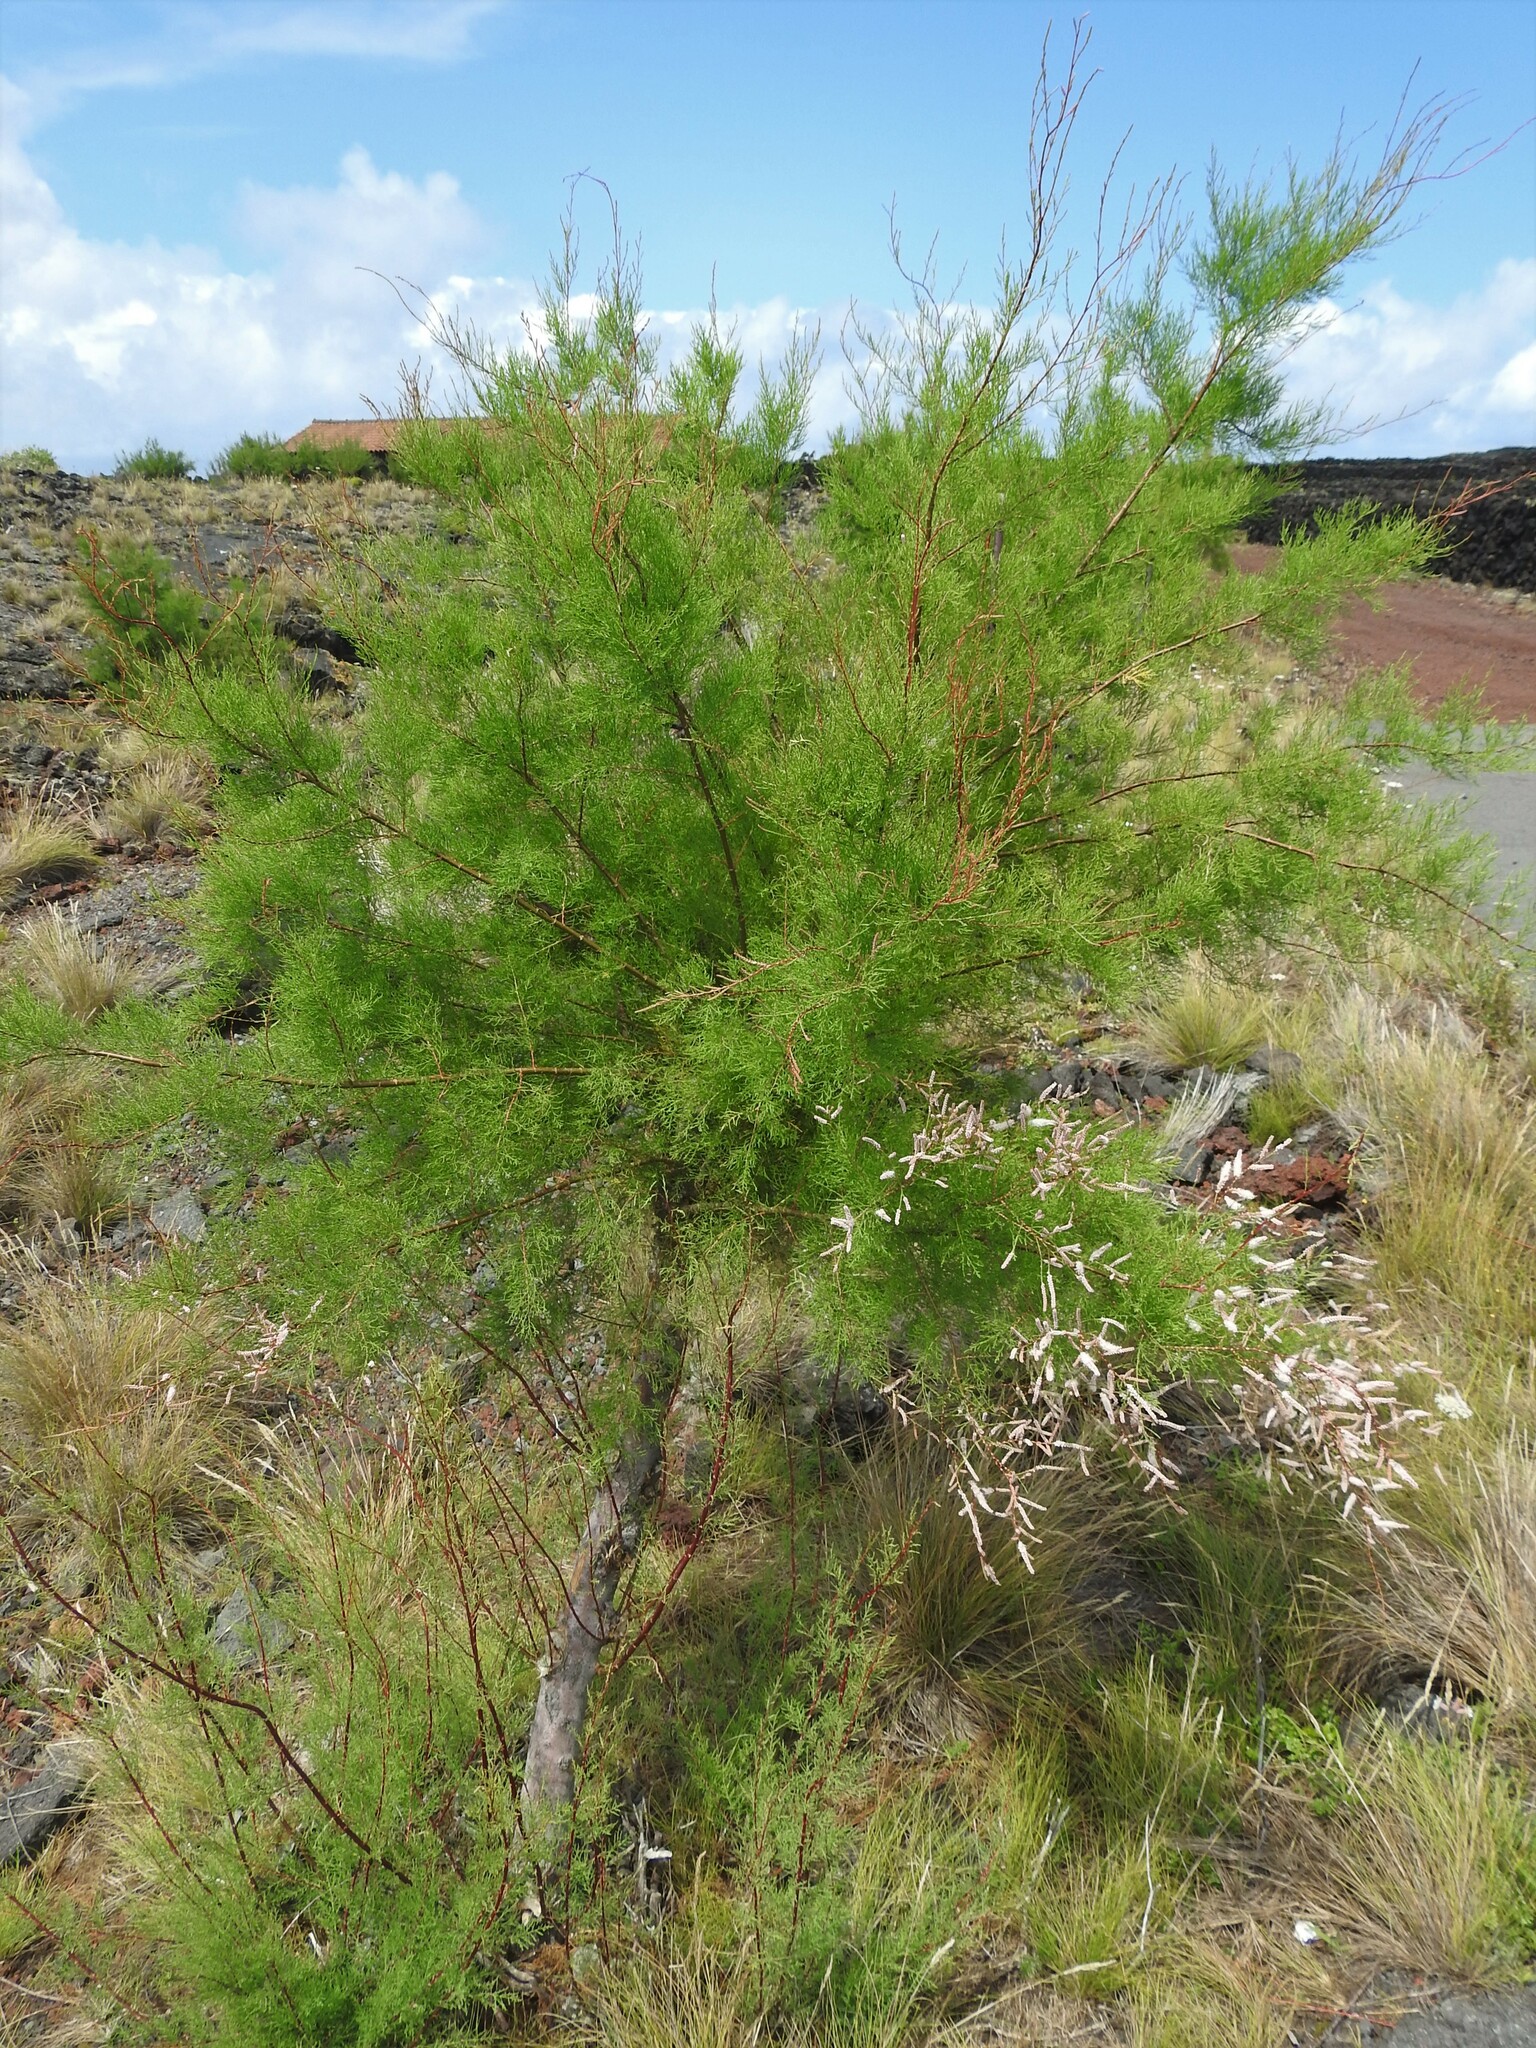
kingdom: Plantae
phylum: Tracheophyta
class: Magnoliopsida
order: Caryophyllales
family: Tamaricaceae
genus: Tamarix
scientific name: Tamarix africana
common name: African tamarisk
